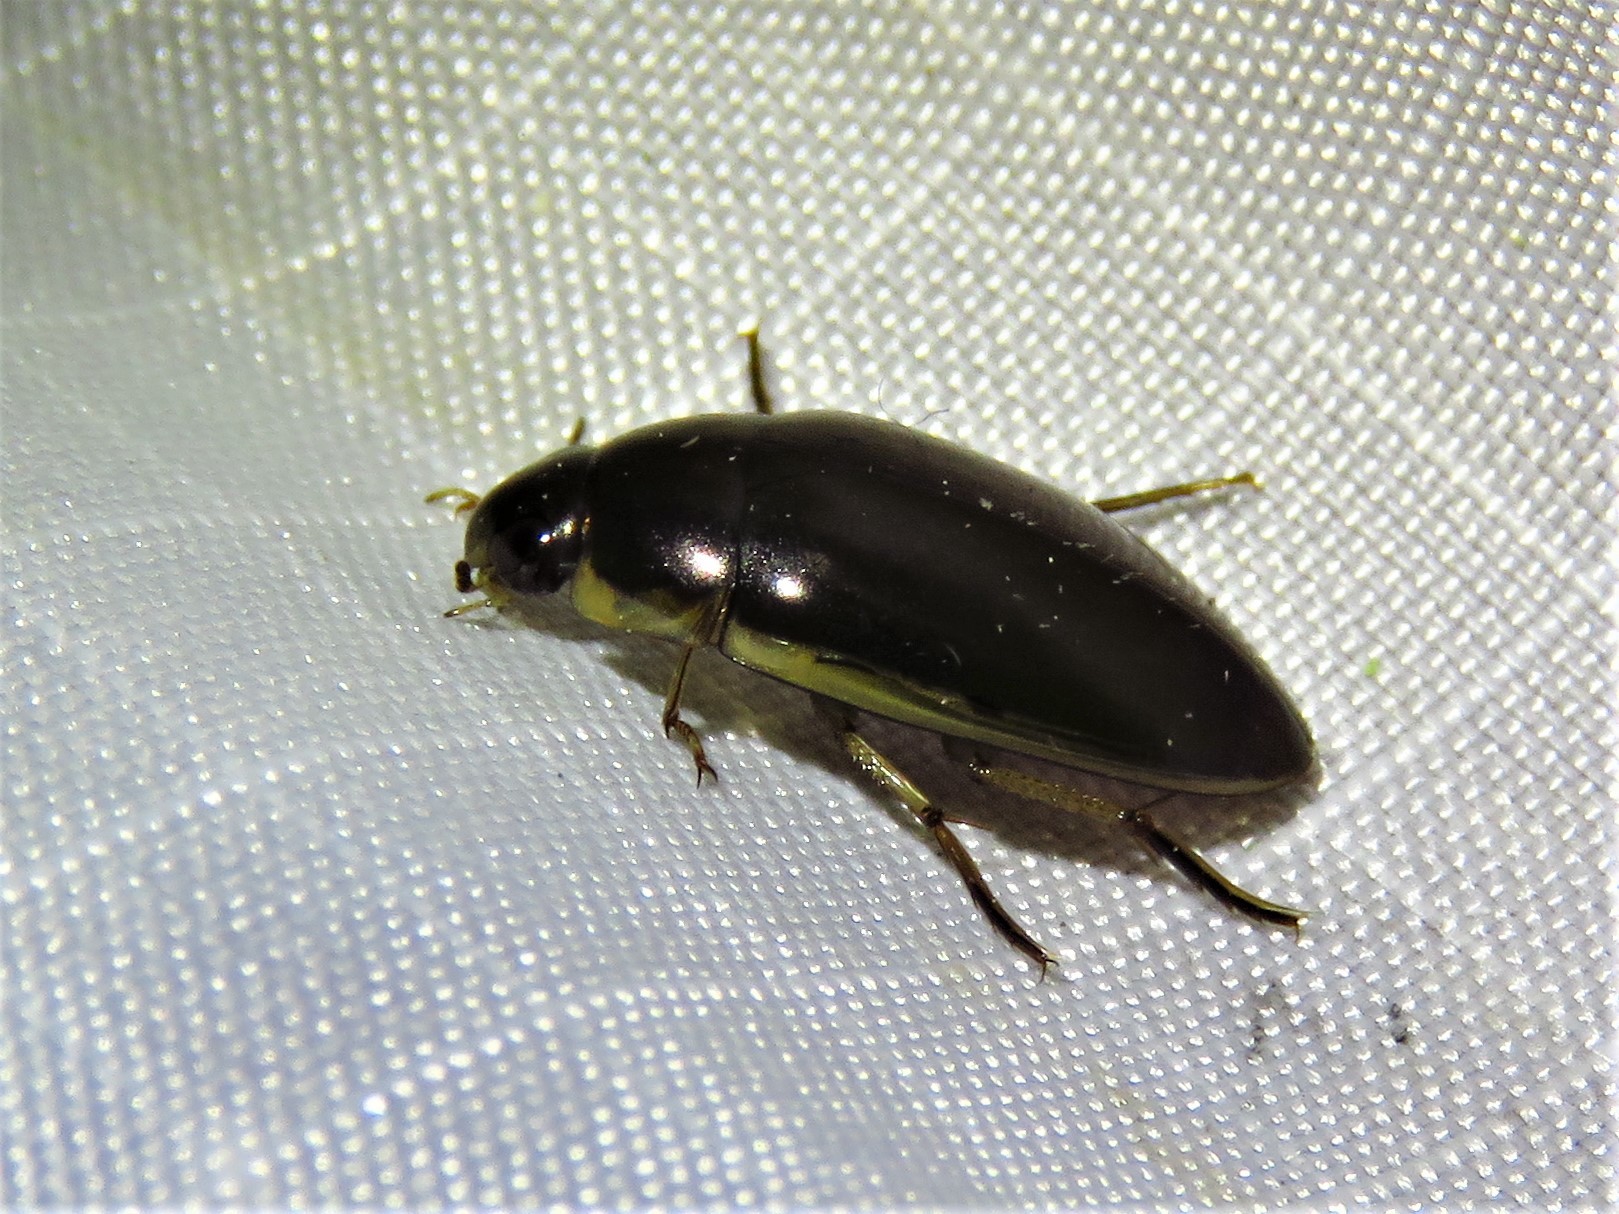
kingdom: Animalia
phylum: Arthropoda
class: Insecta
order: Coleoptera
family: Hydrophilidae
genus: Tropisternus
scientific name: Tropisternus lateralis
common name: Lateral-banded water scavenger beetle
